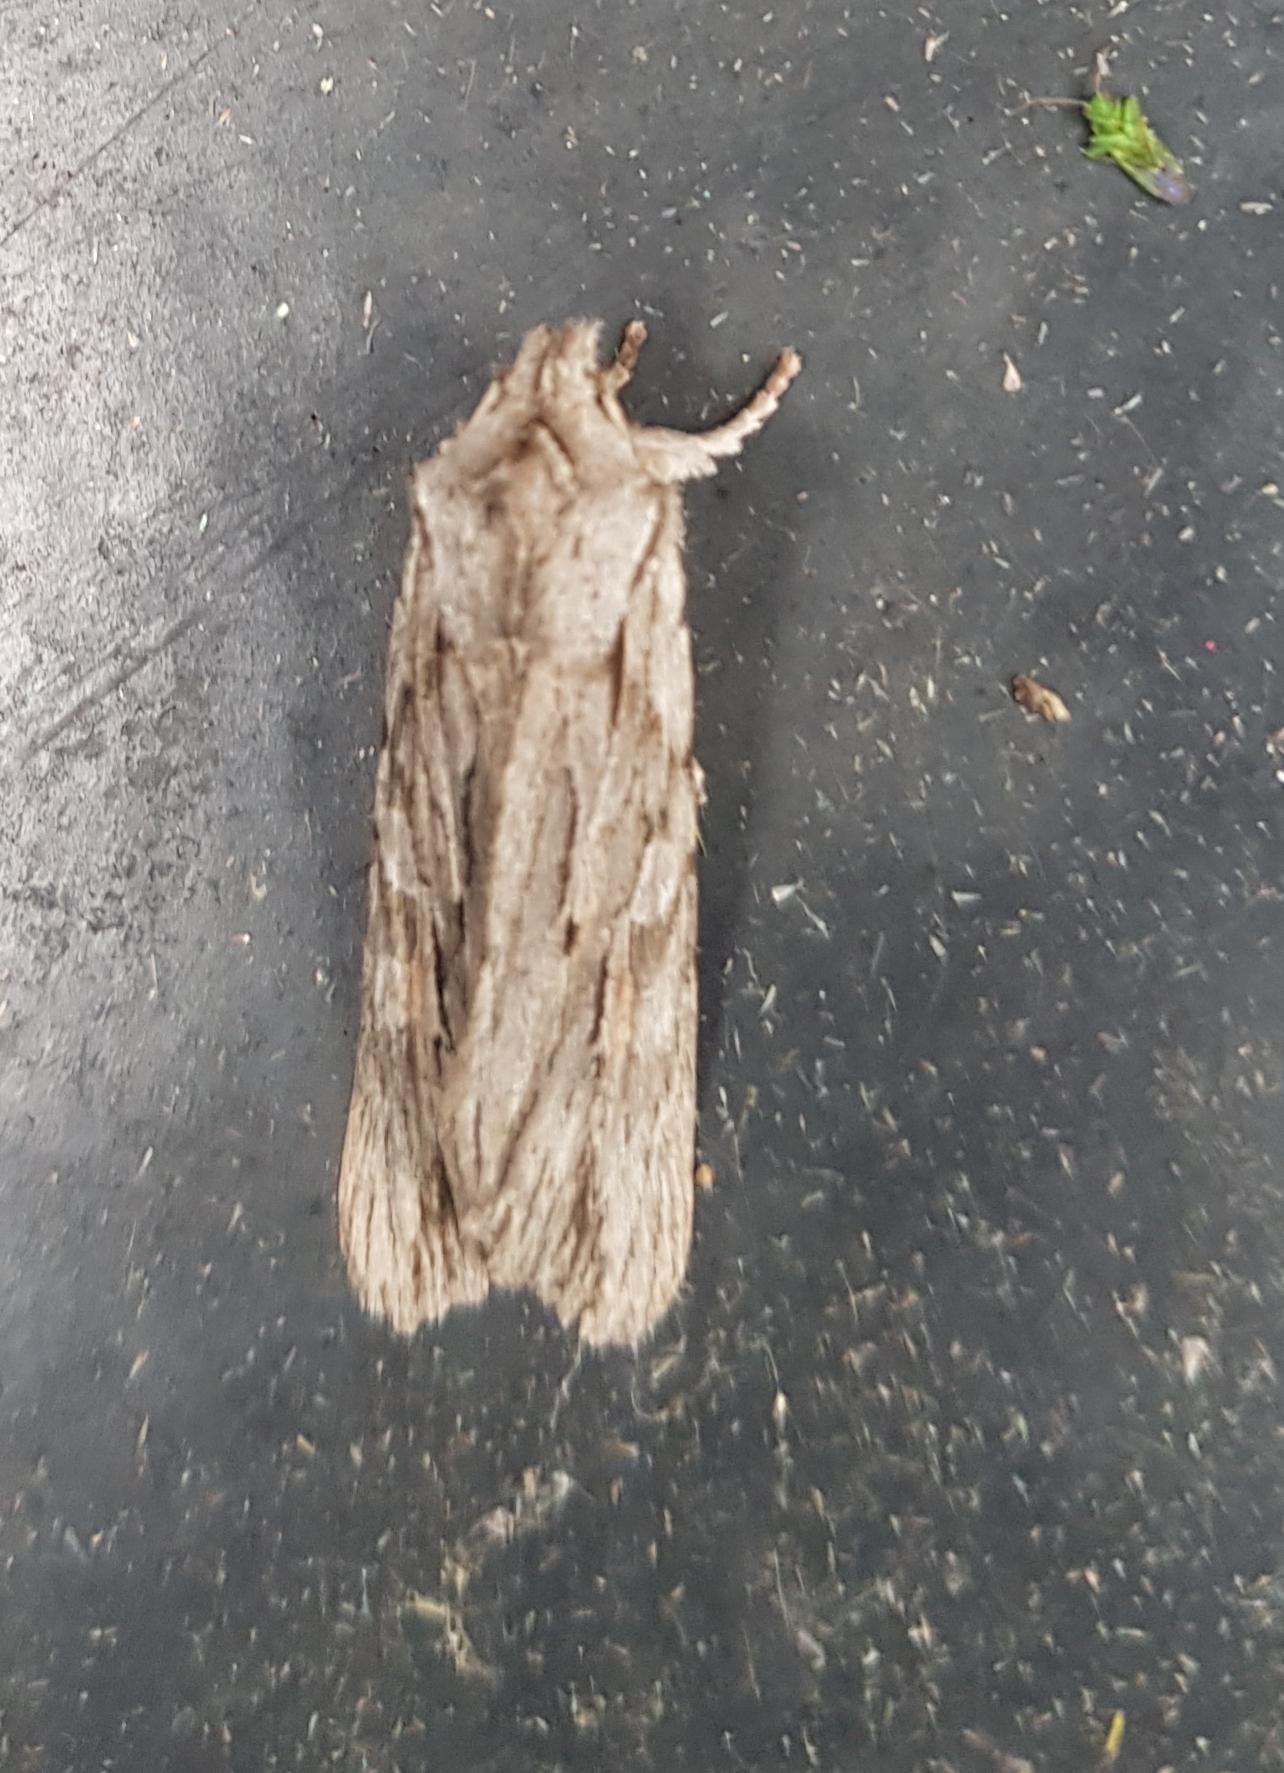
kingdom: Animalia
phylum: Arthropoda
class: Insecta
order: Lepidoptera
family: Noctuidae
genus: Lithophane
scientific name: Lithophane leautieri
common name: Blair's shoulder-knot
